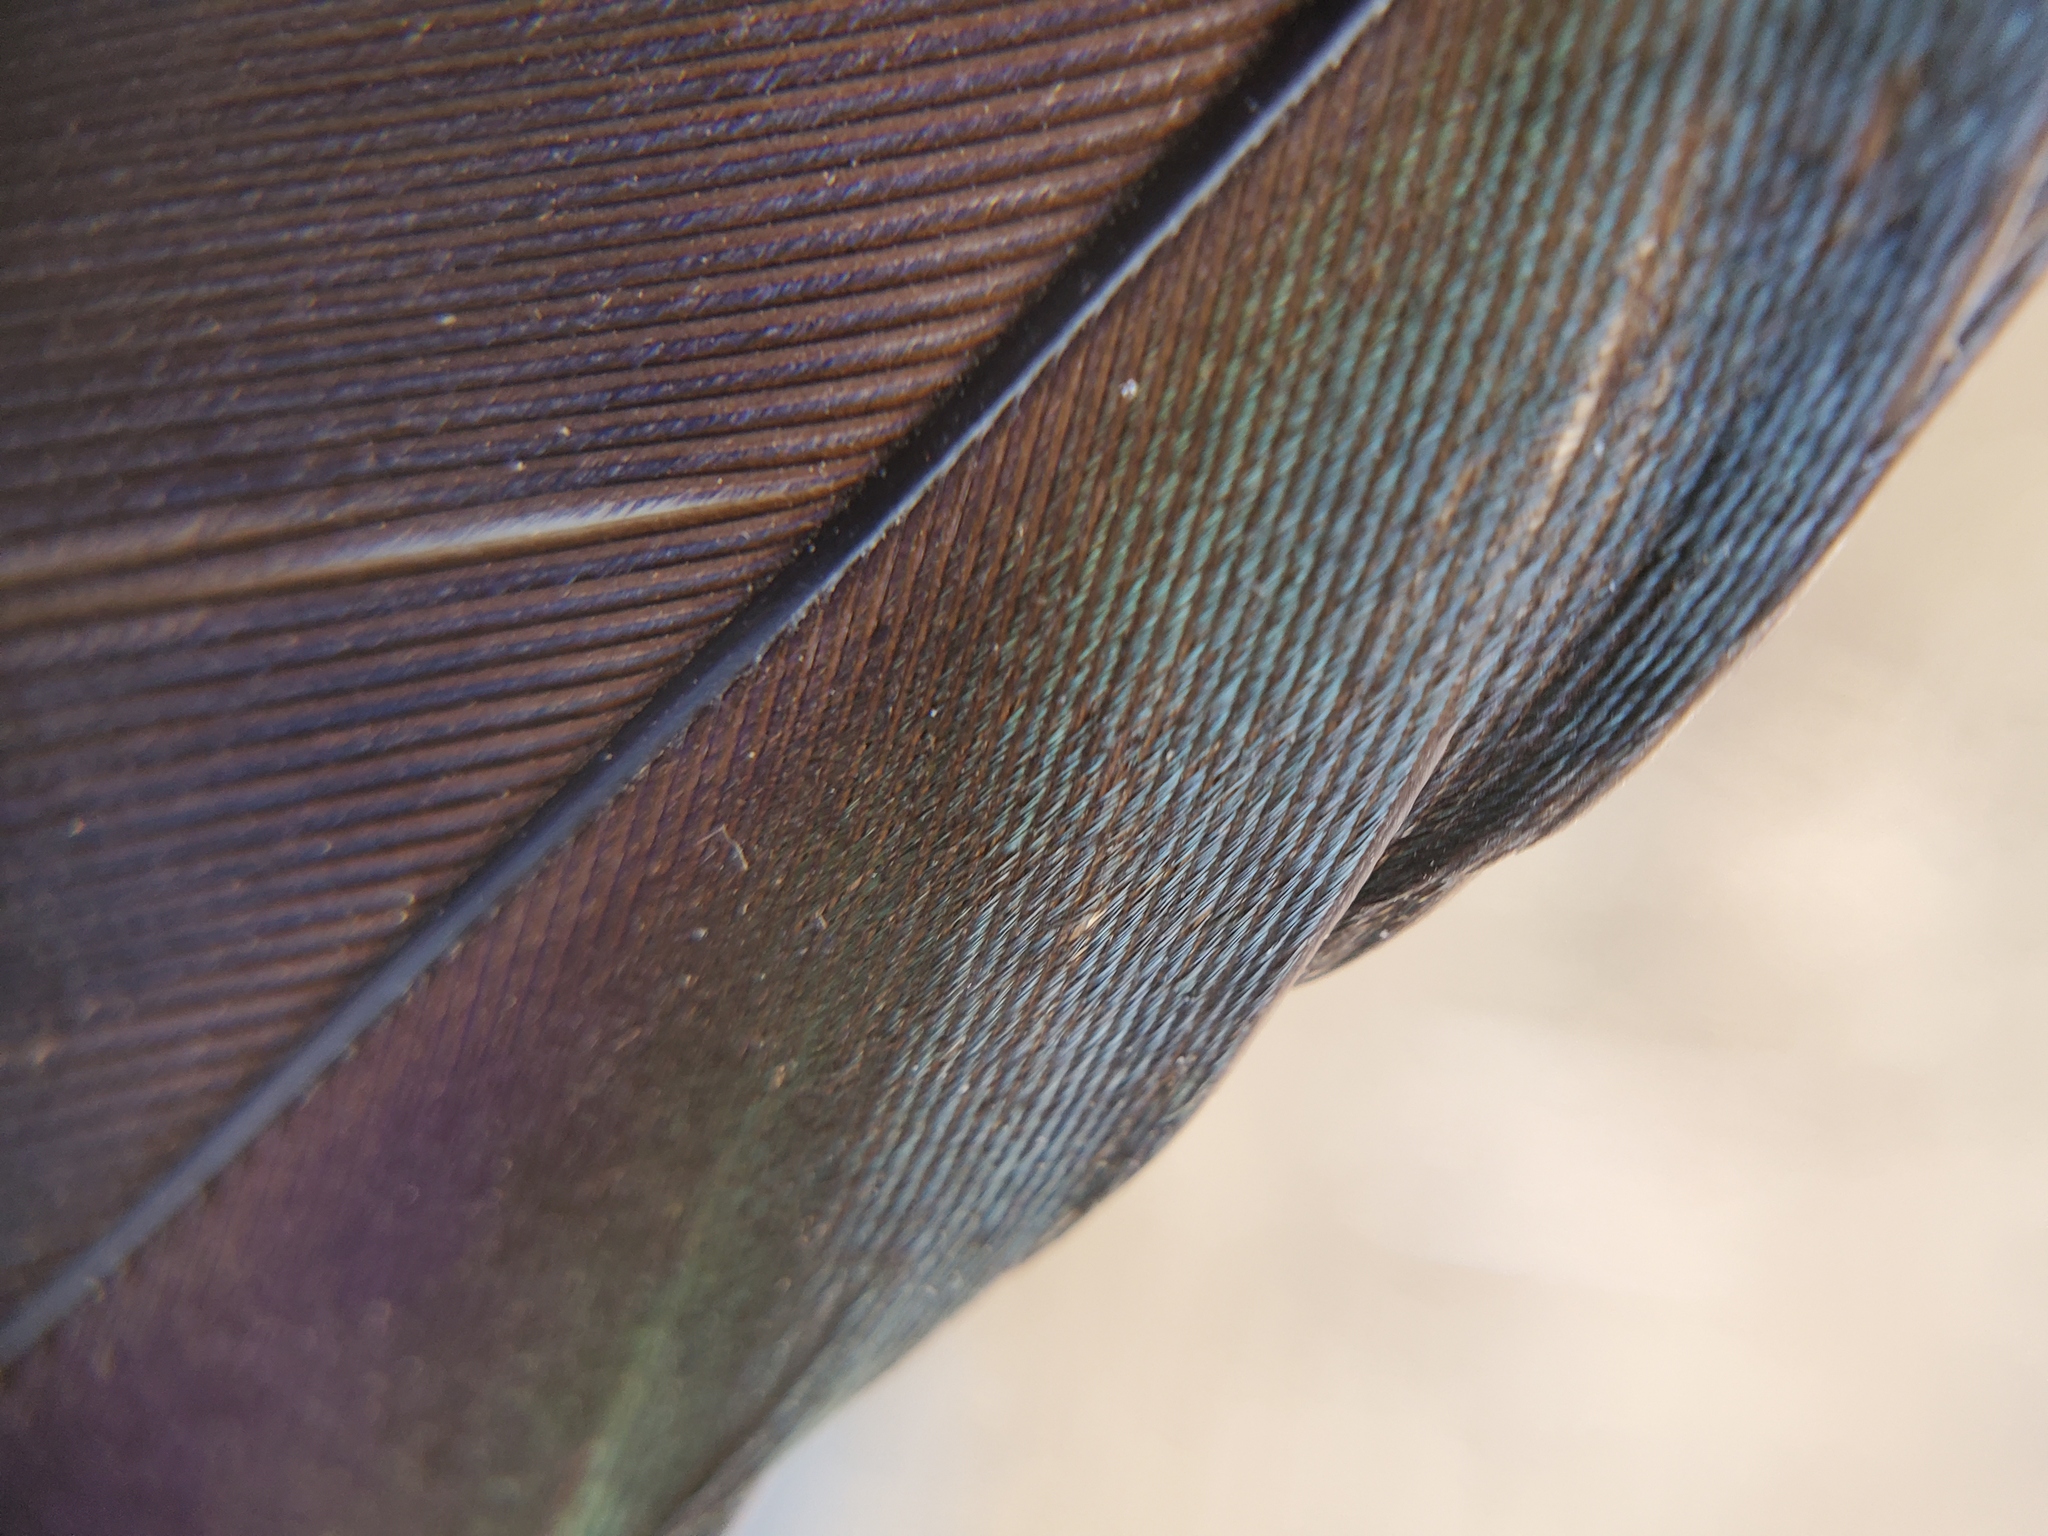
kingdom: Animalia
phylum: Chordata
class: Aves
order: Passeriformes
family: Corvidae
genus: Pica
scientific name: Pica nuttalli
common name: Yellow-billed magpie
